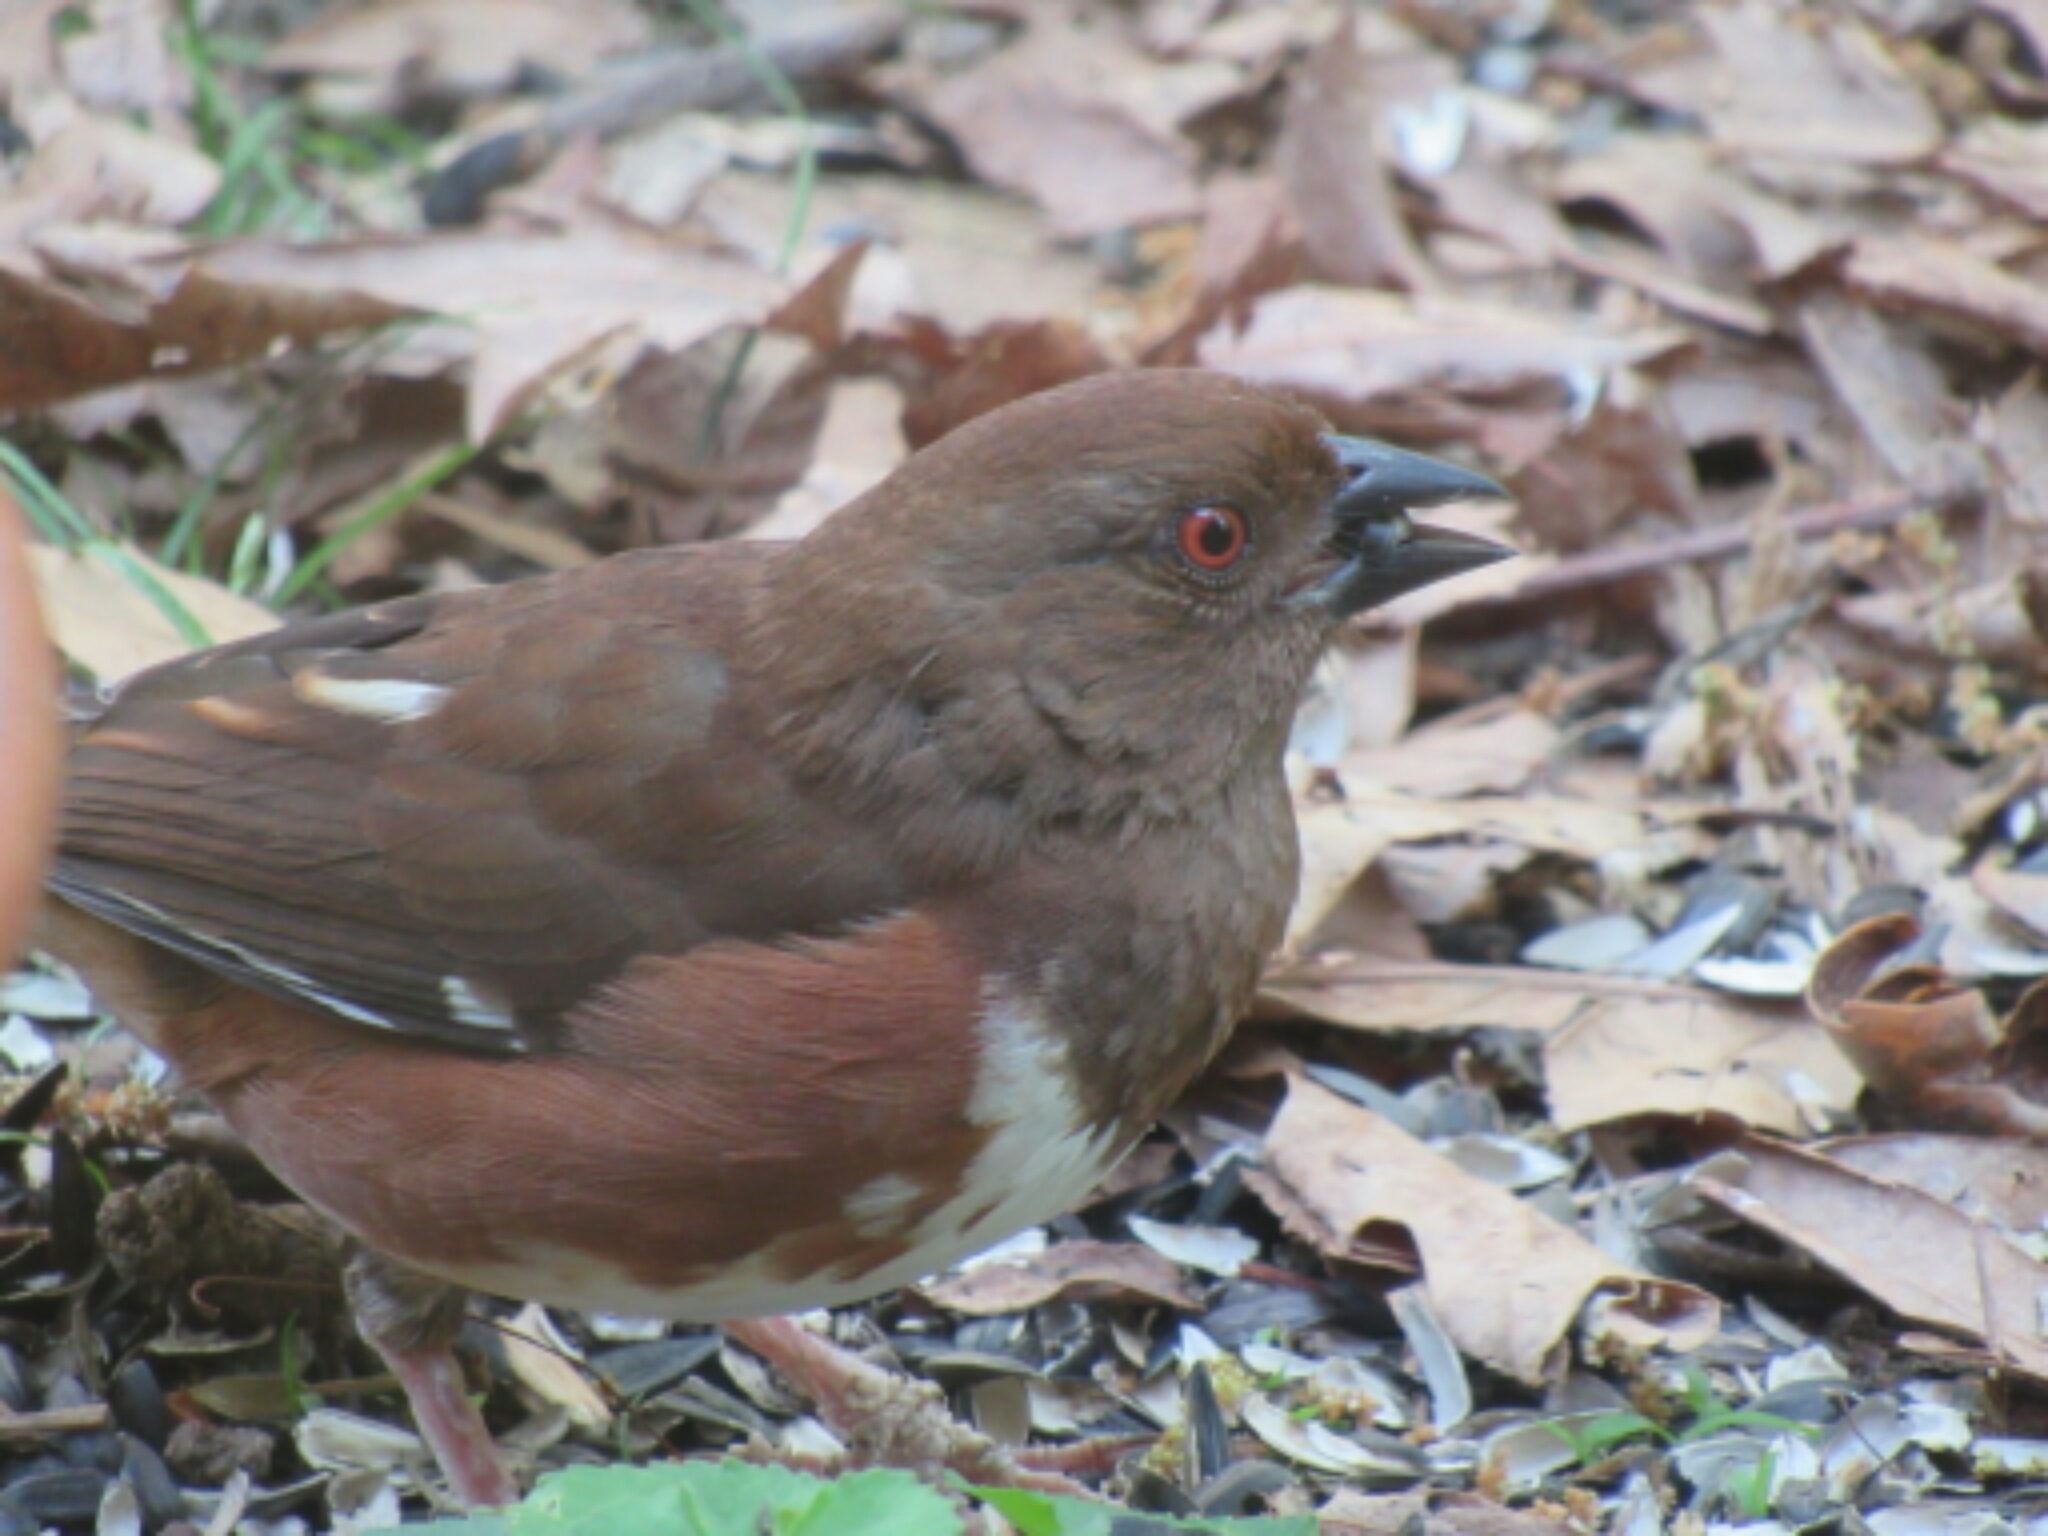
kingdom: Animalia
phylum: Chordata
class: Aves
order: Passeriformes
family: Passerellidae
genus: Pipilo
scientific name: Pipilo erythrophthalmus
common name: Eastern towhee
